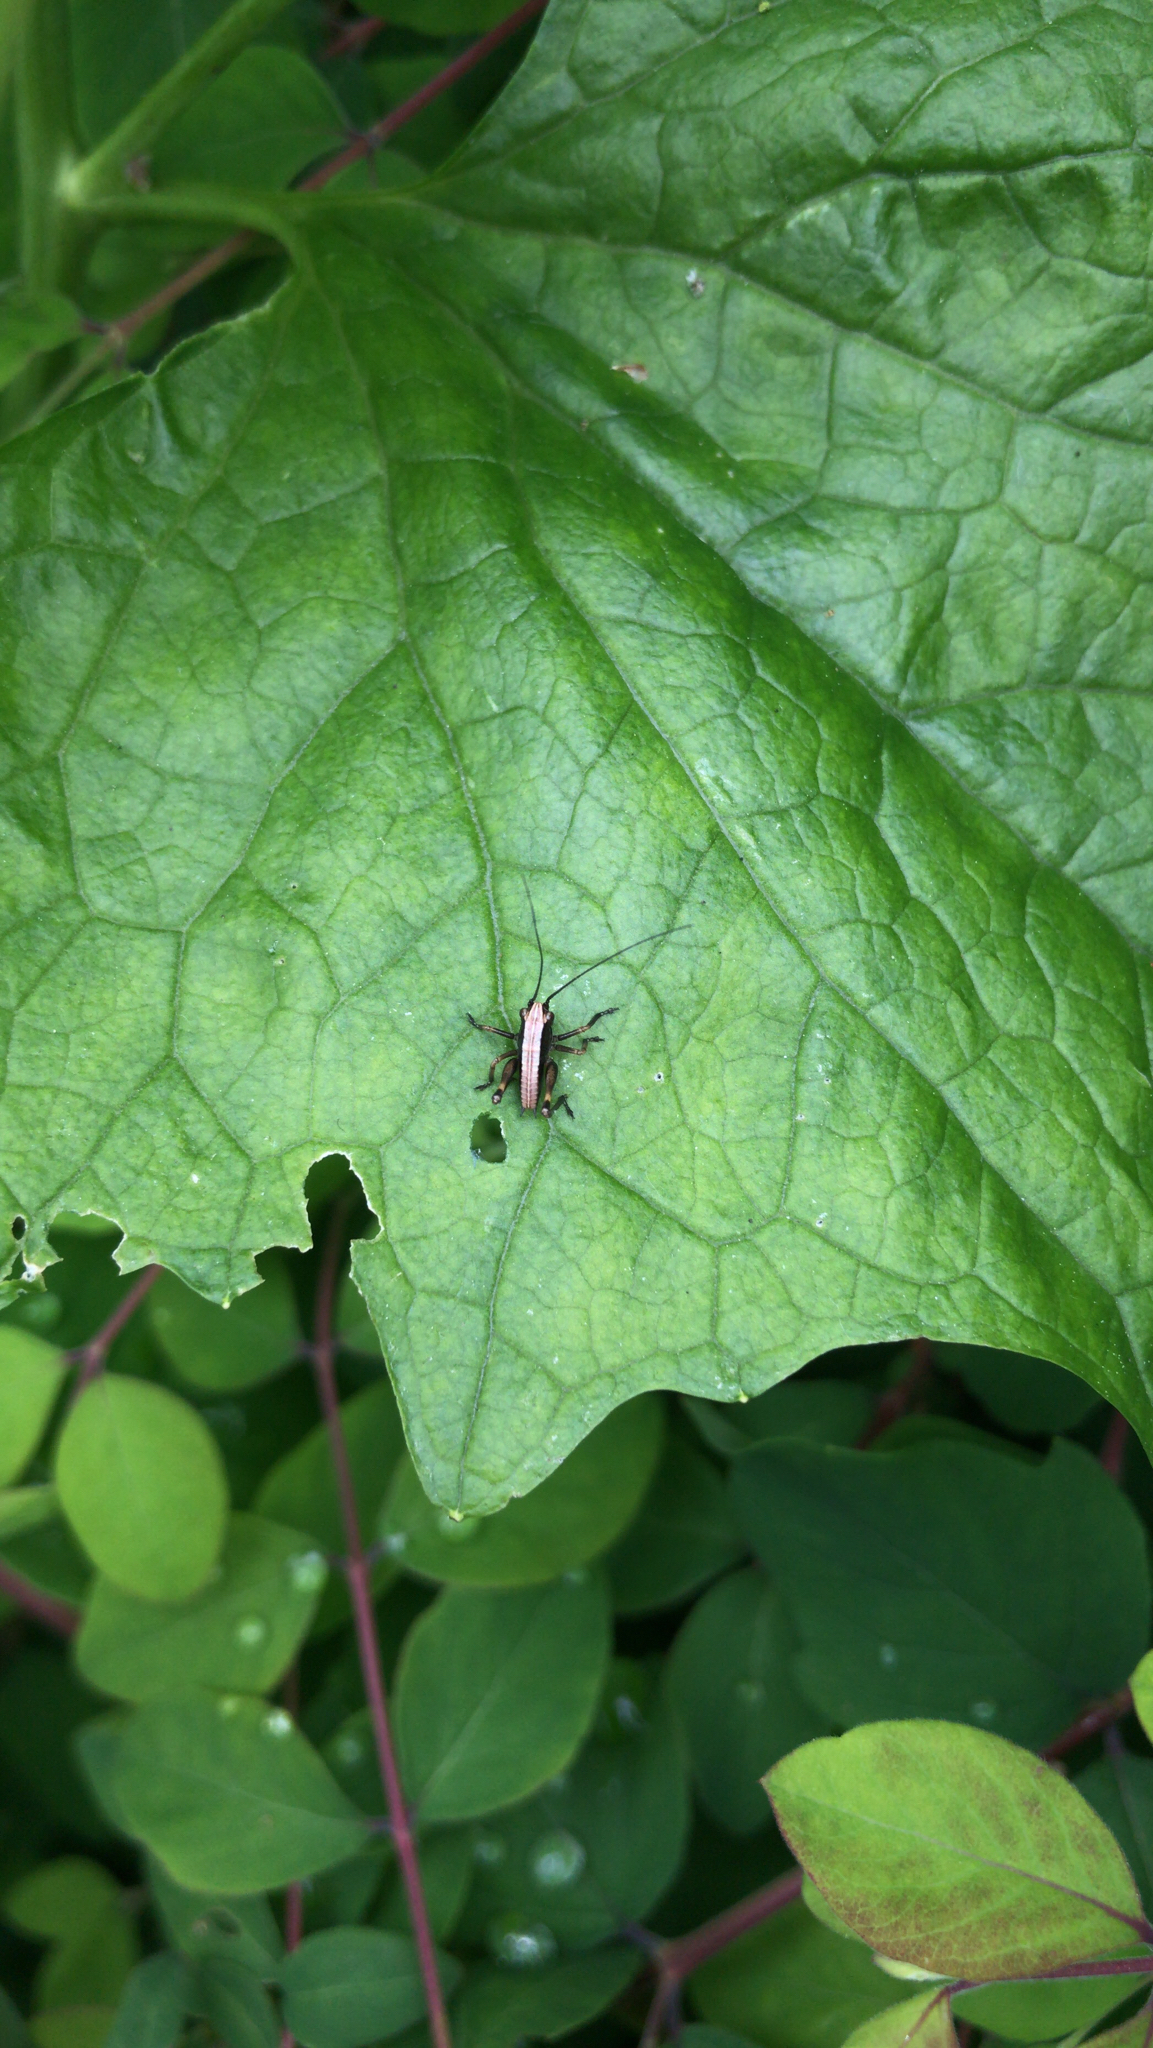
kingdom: Animalia
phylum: Arthropoda
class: Insecta
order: Orthoptera
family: Tettigoniidae
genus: Pholidoptera
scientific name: Pholidoptera griseoaptera
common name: Dark bush-cricket
